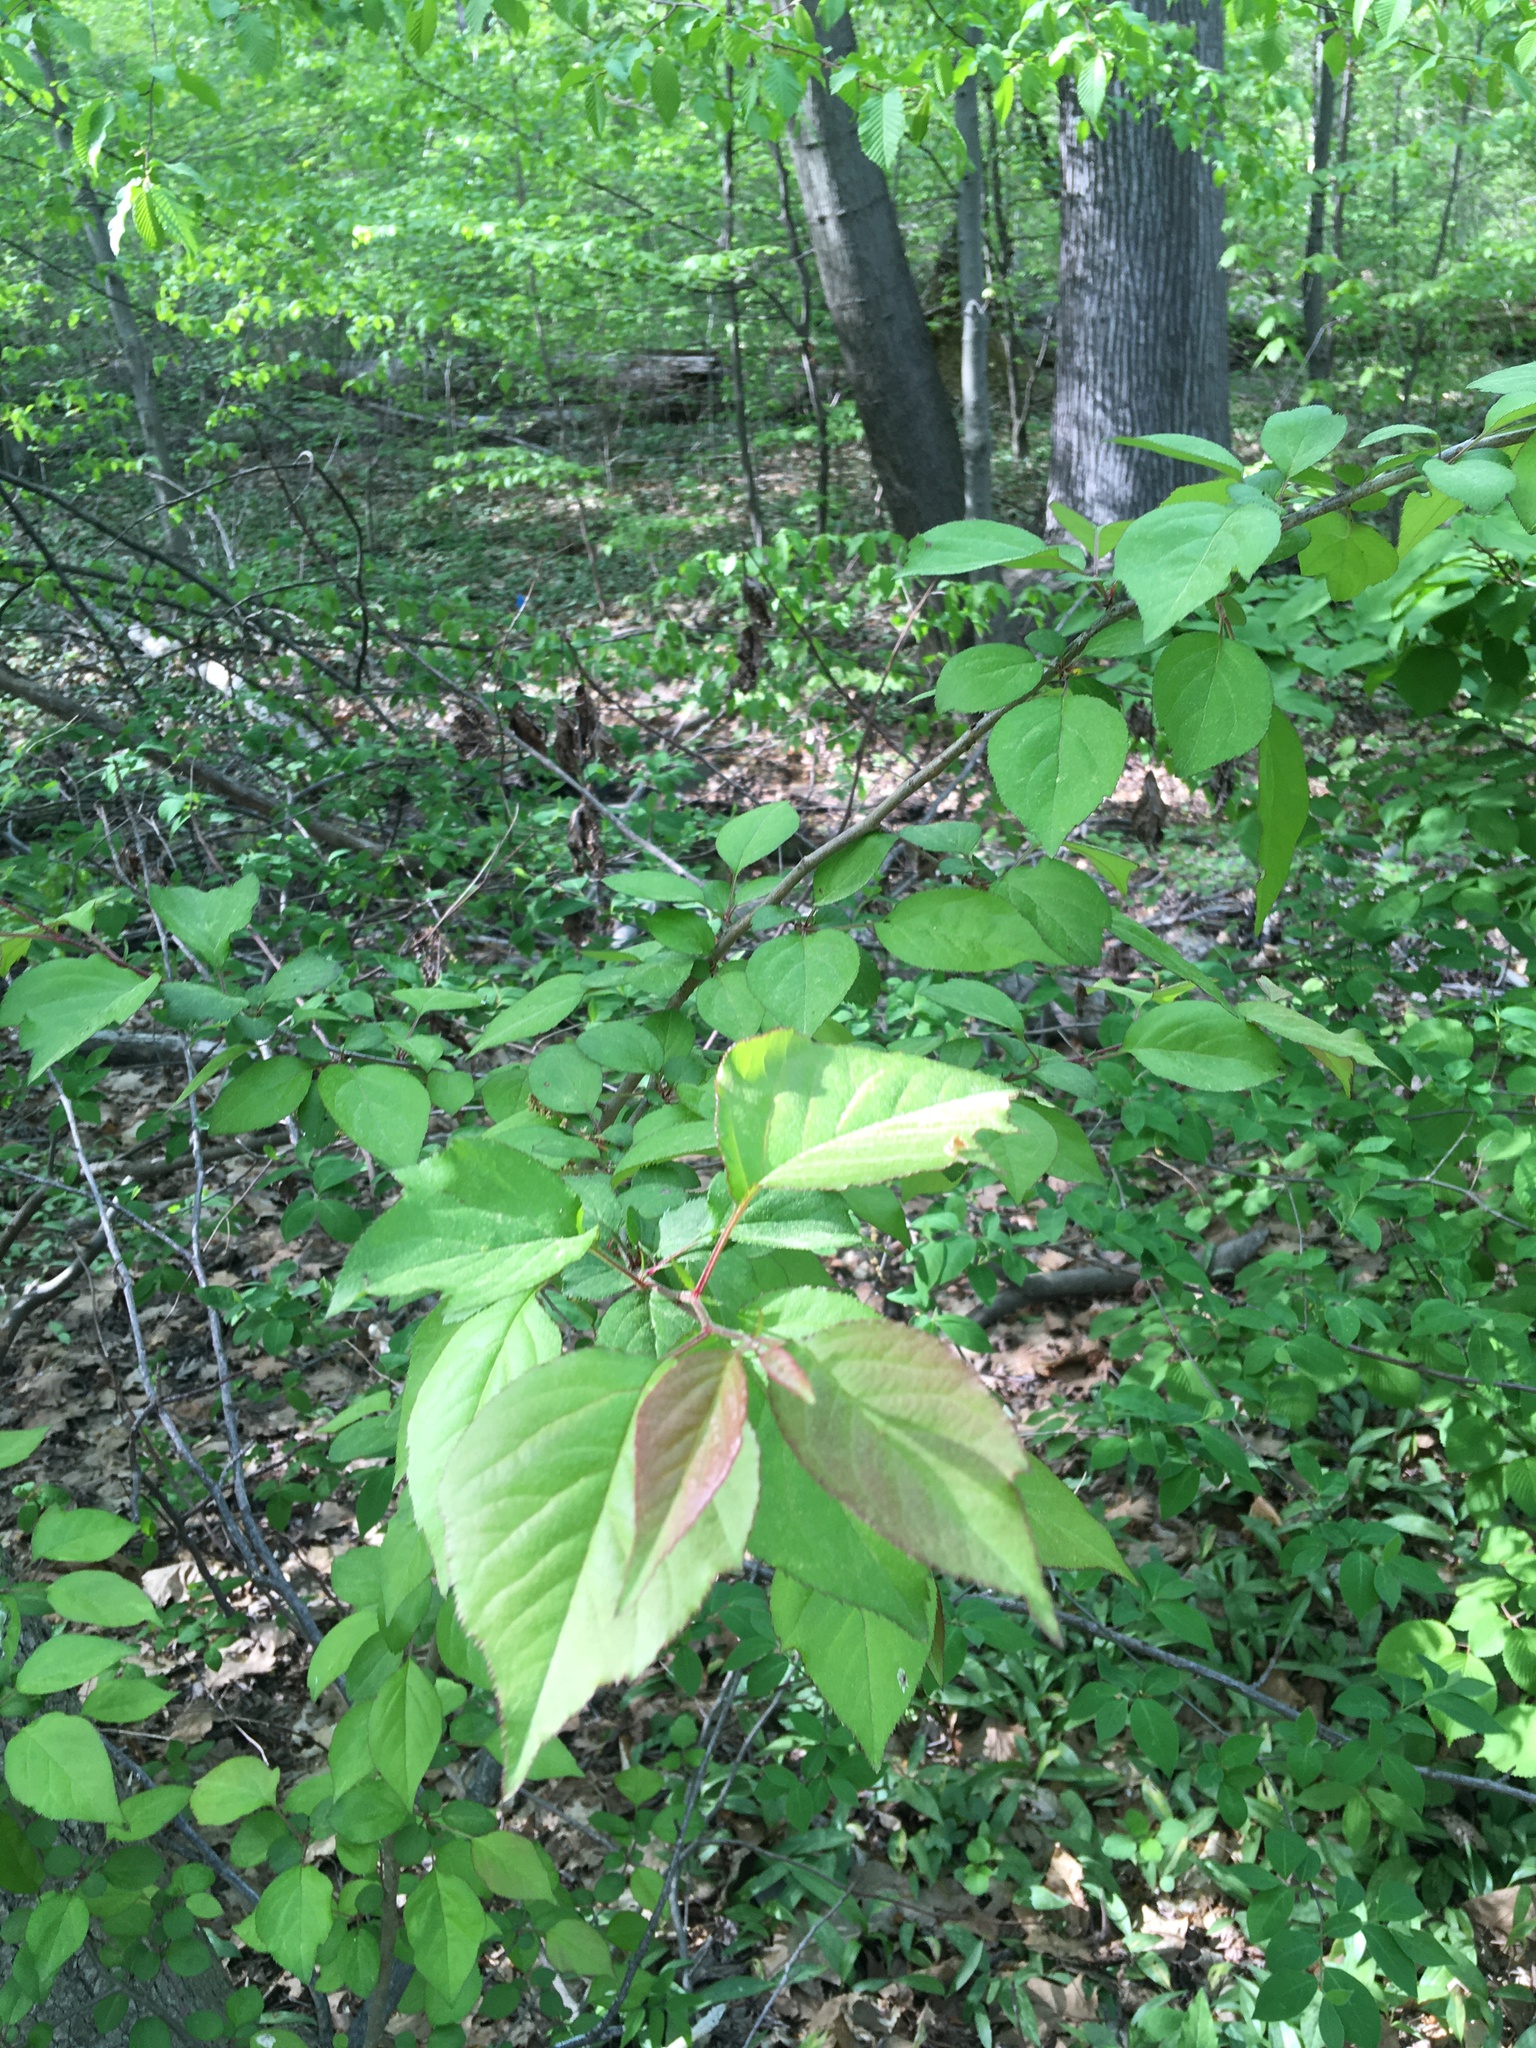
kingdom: Plantae
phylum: Tracheophyta
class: Magnoliopsida
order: Rosales
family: Rosaceae
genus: Malus
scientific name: Malus hupehensis
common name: Chinese crab apple
